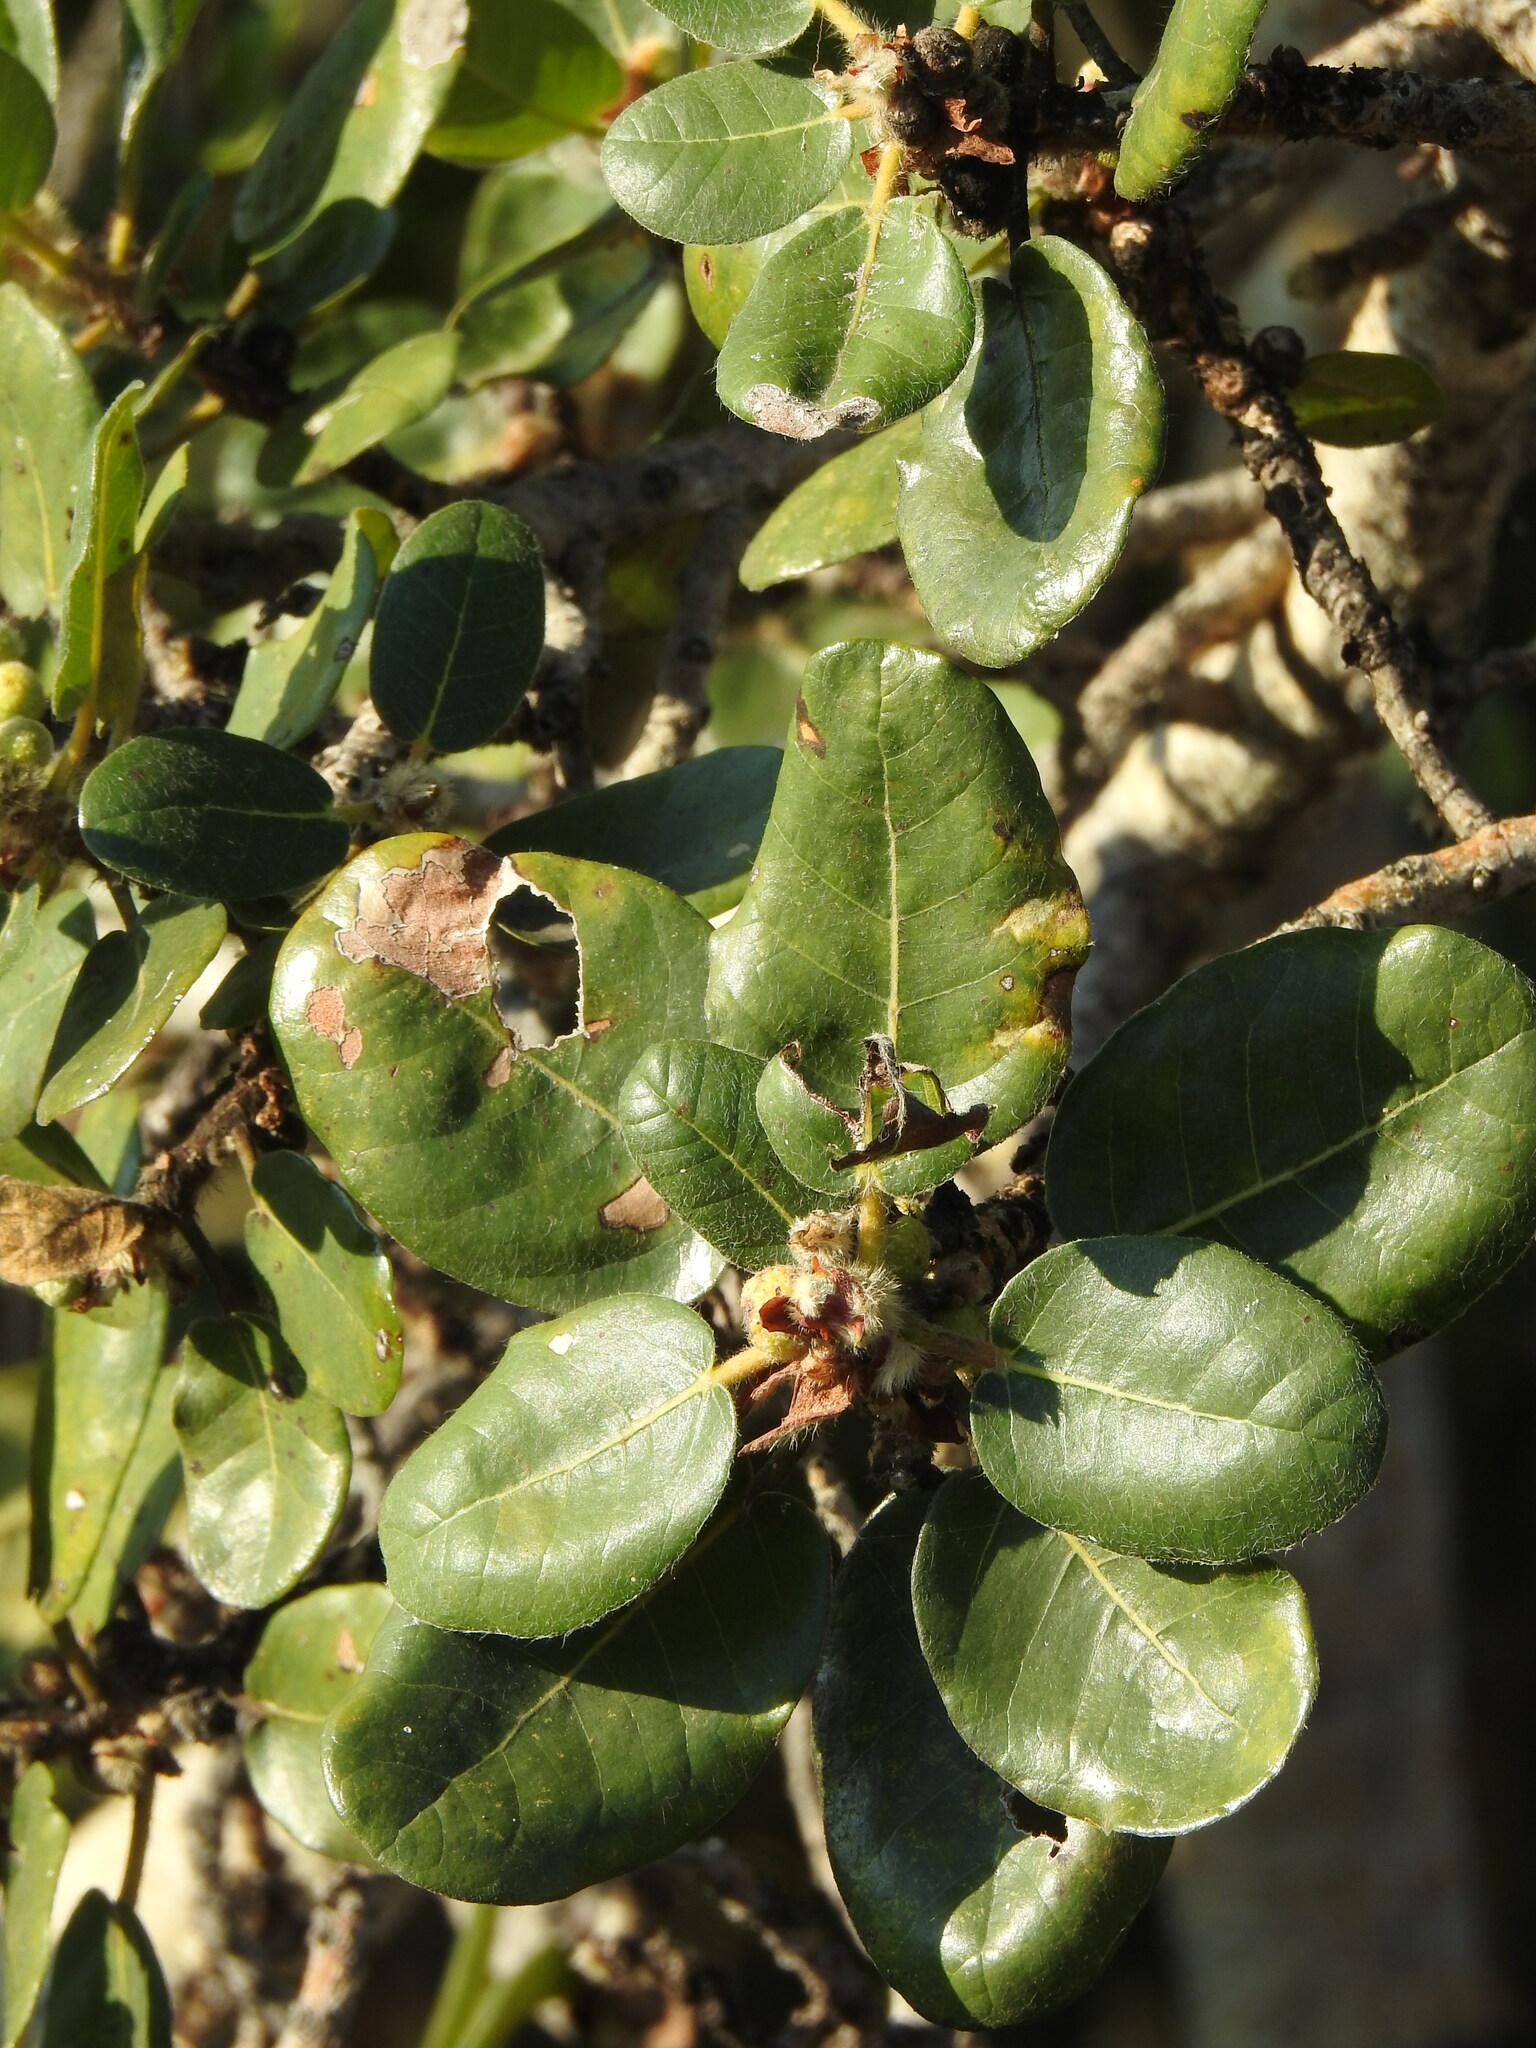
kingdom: Plantae
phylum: Tracheophyta
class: Magnoliopsida
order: Rosales
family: Moraceae
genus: Ficus
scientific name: Ficus glumosa
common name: Hairy rock fig
